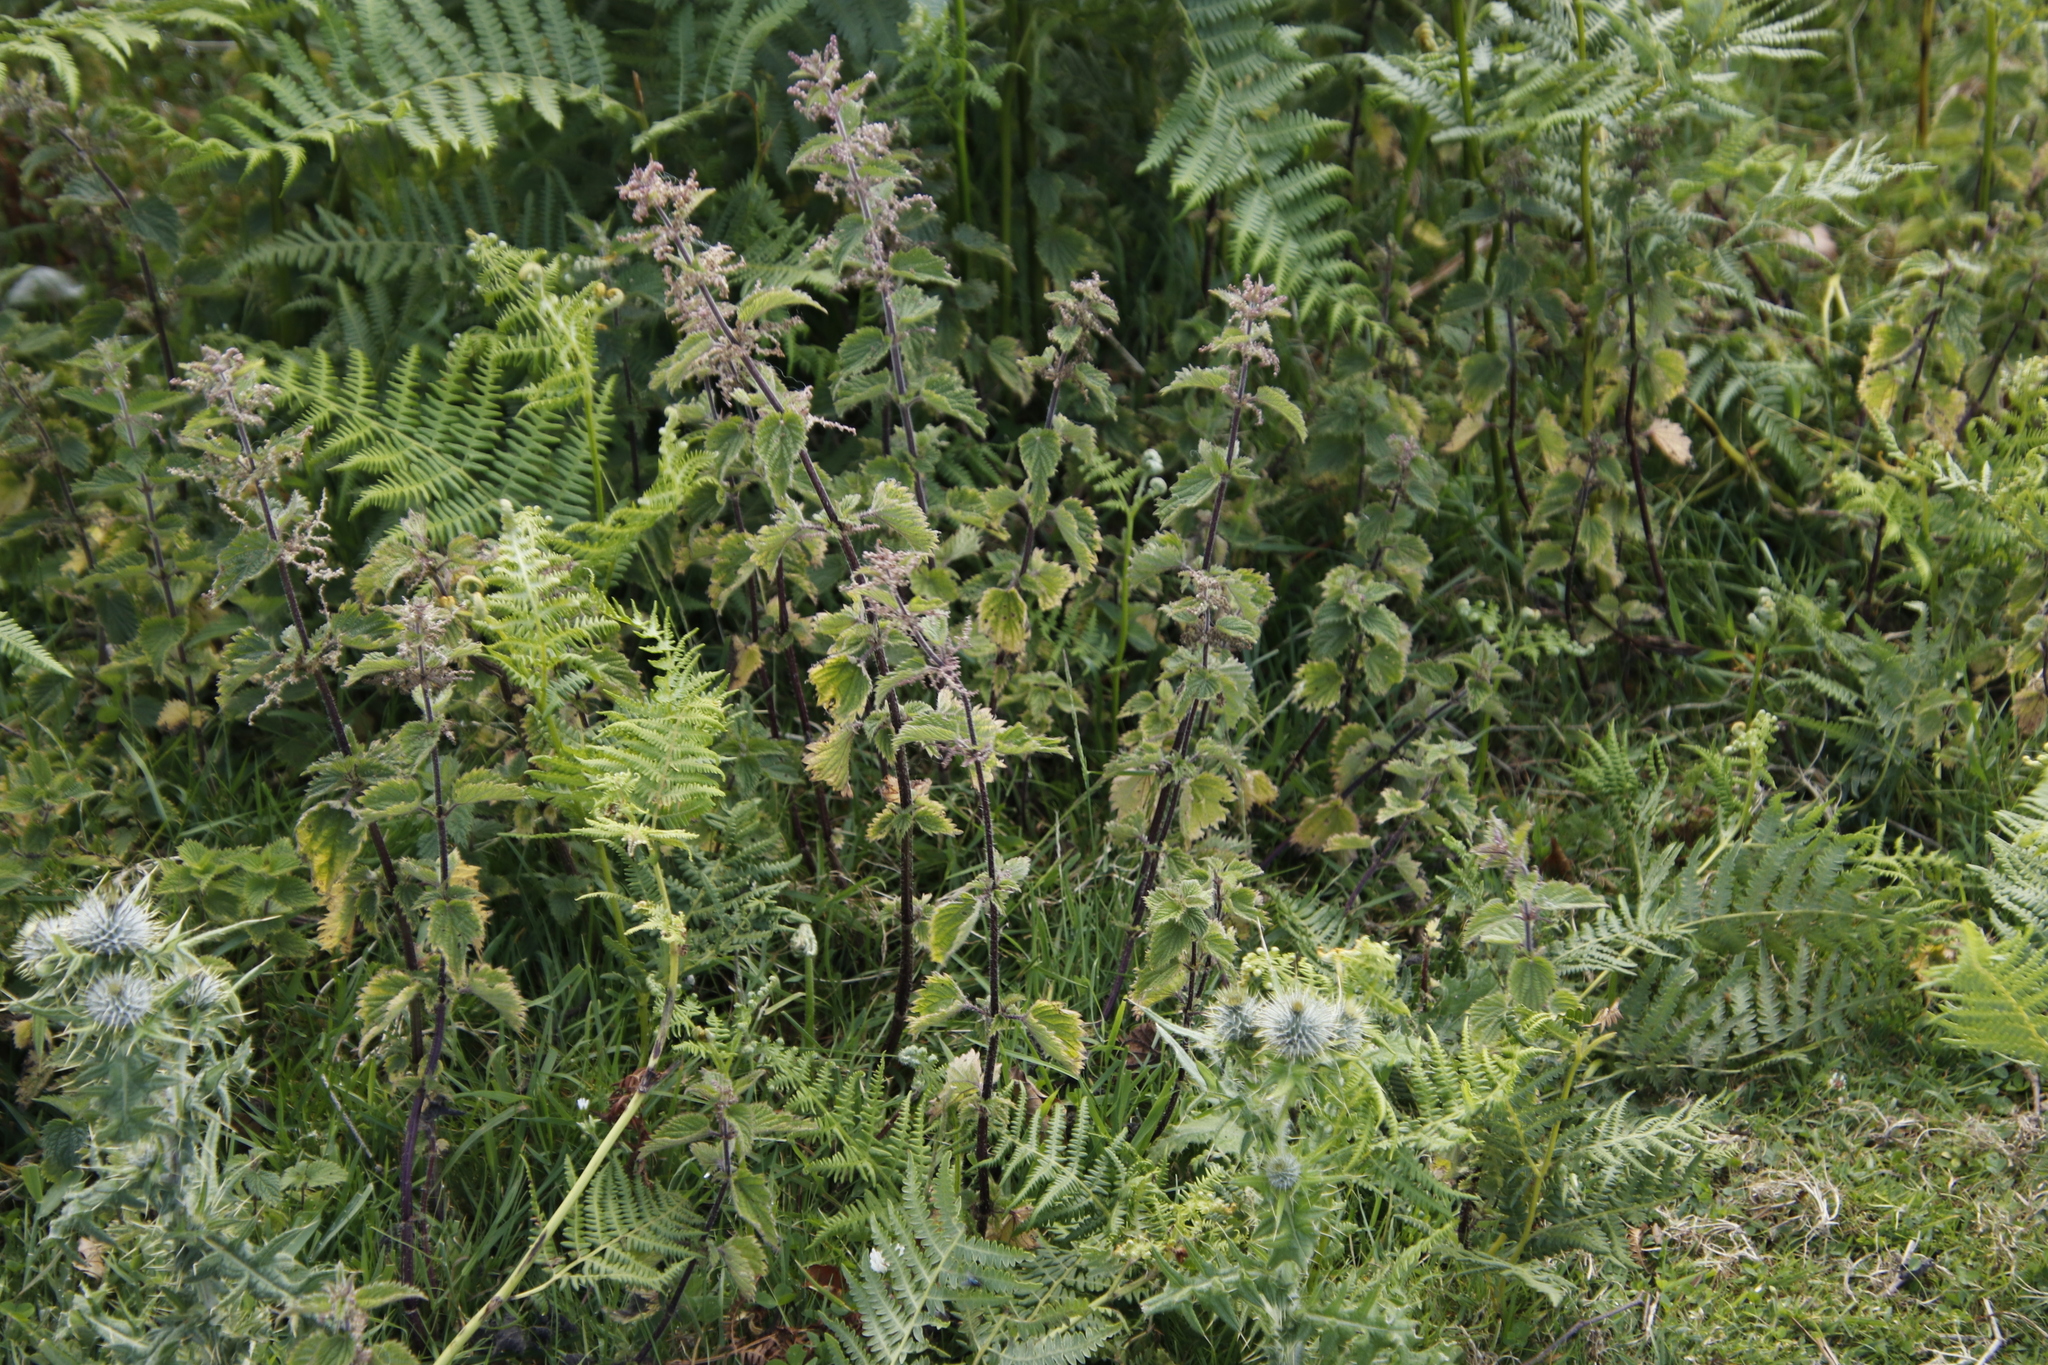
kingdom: Plantae
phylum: Tracheophyta
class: Magnoliopsida
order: Rosales
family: Urticaceae
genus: Urtica
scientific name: Urtica dioica
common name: Common nettle
